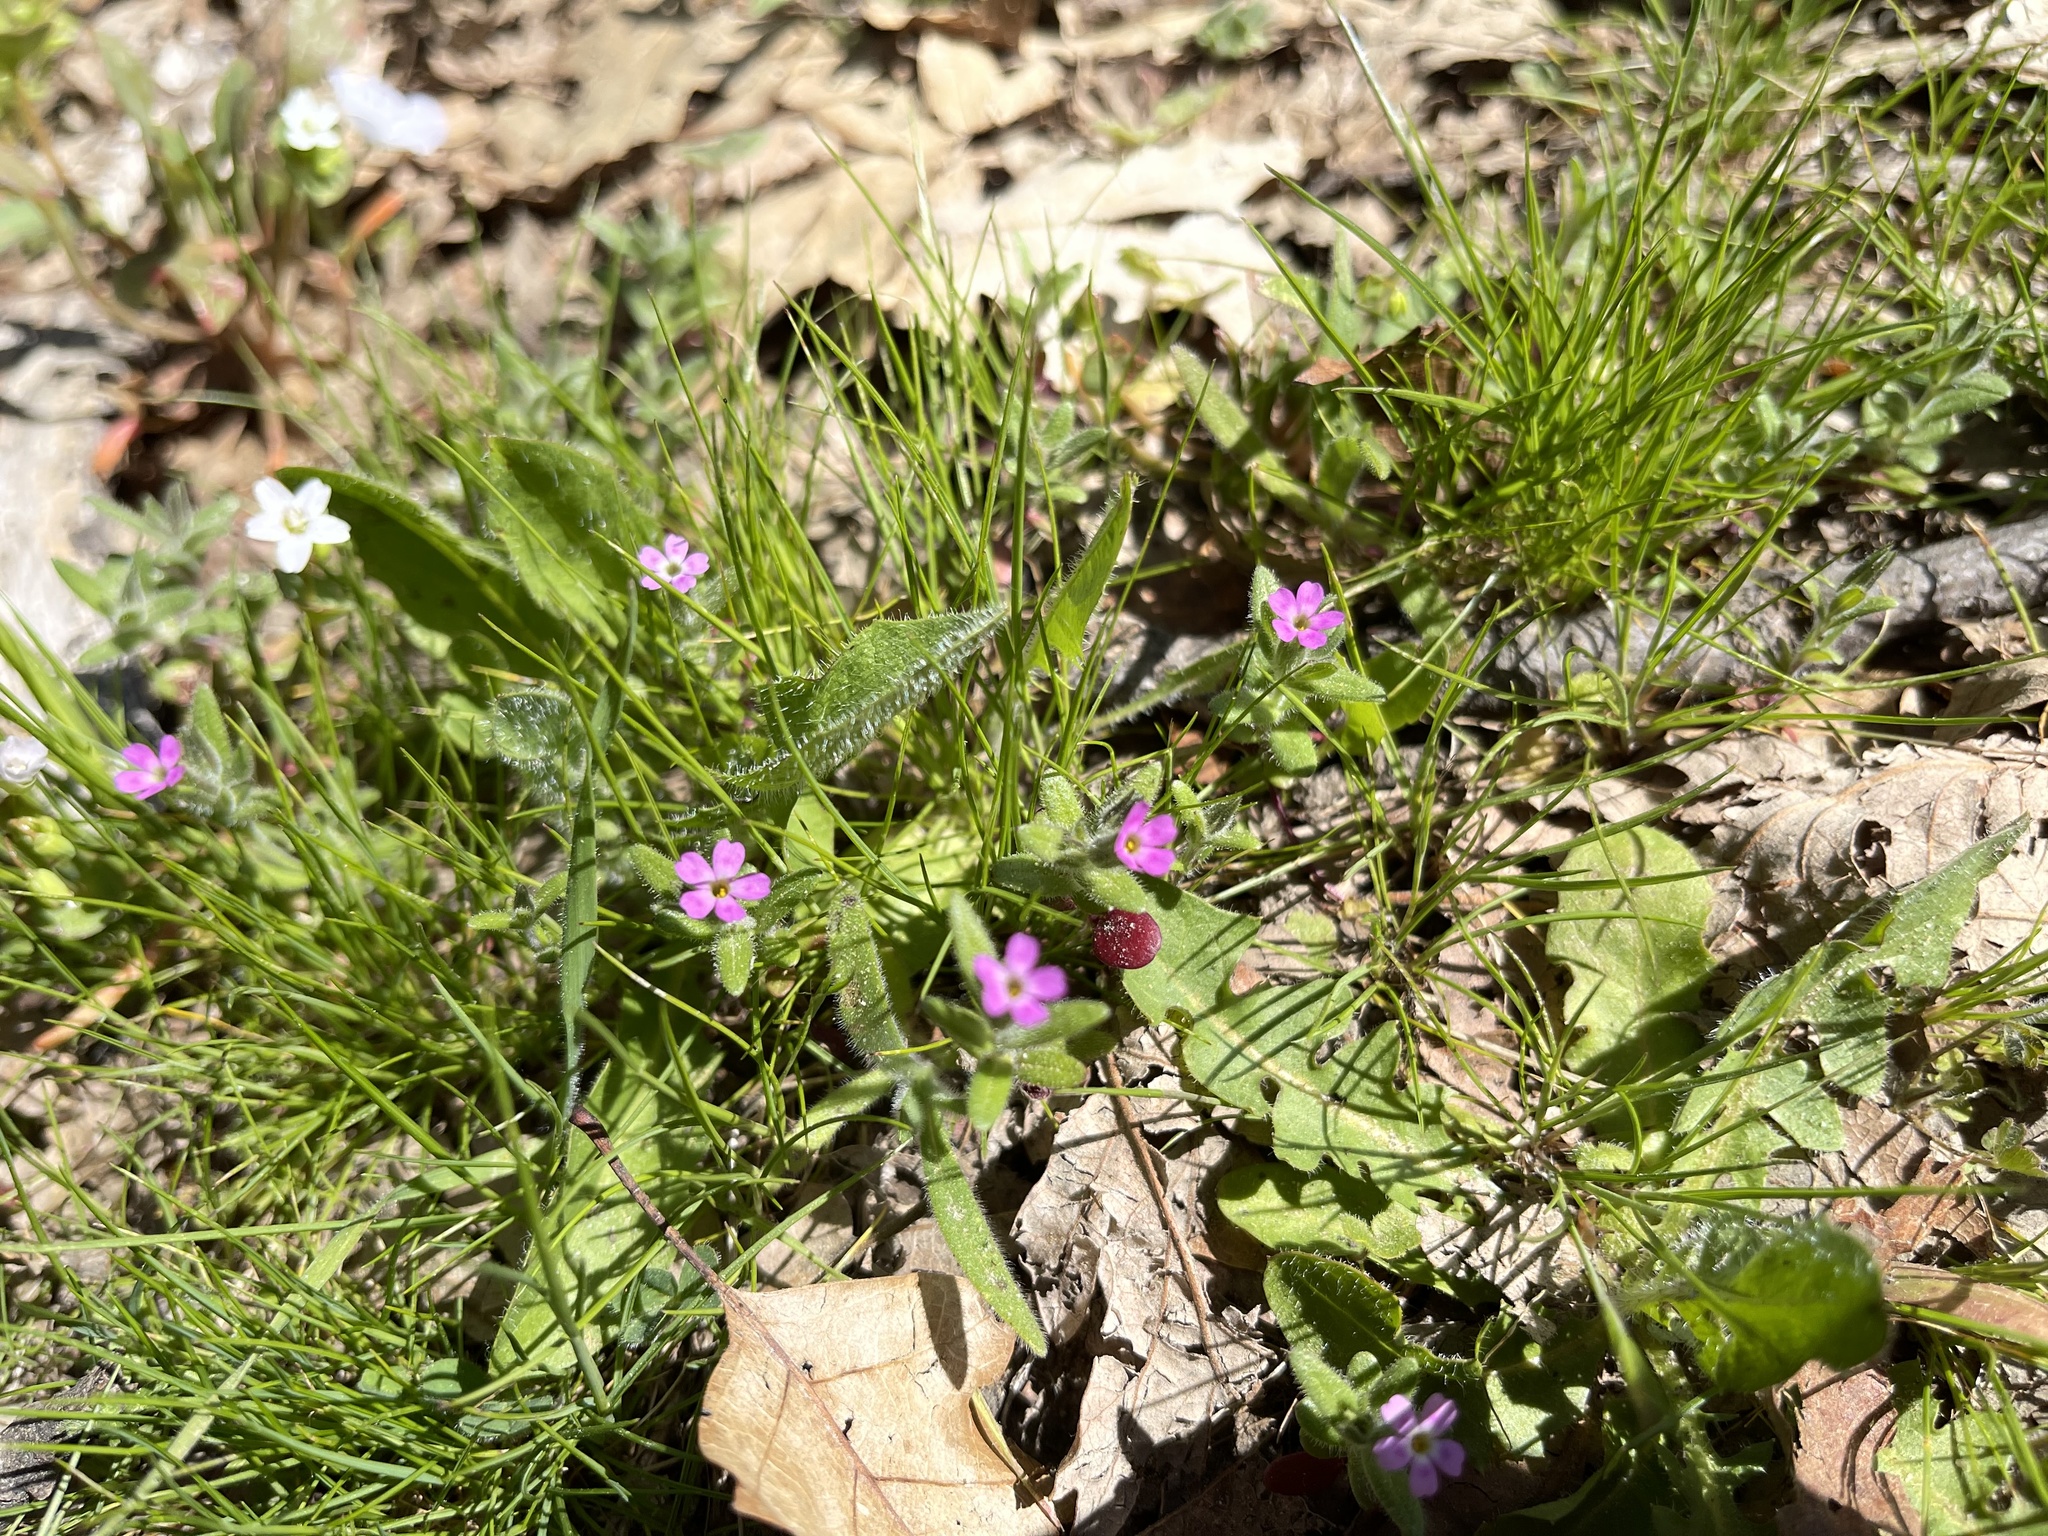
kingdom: Plantae
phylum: Tracheophyta
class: Magnoliopsida
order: Ericales
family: Polemoniaceae
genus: Phlox
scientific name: Phlox gracilis
